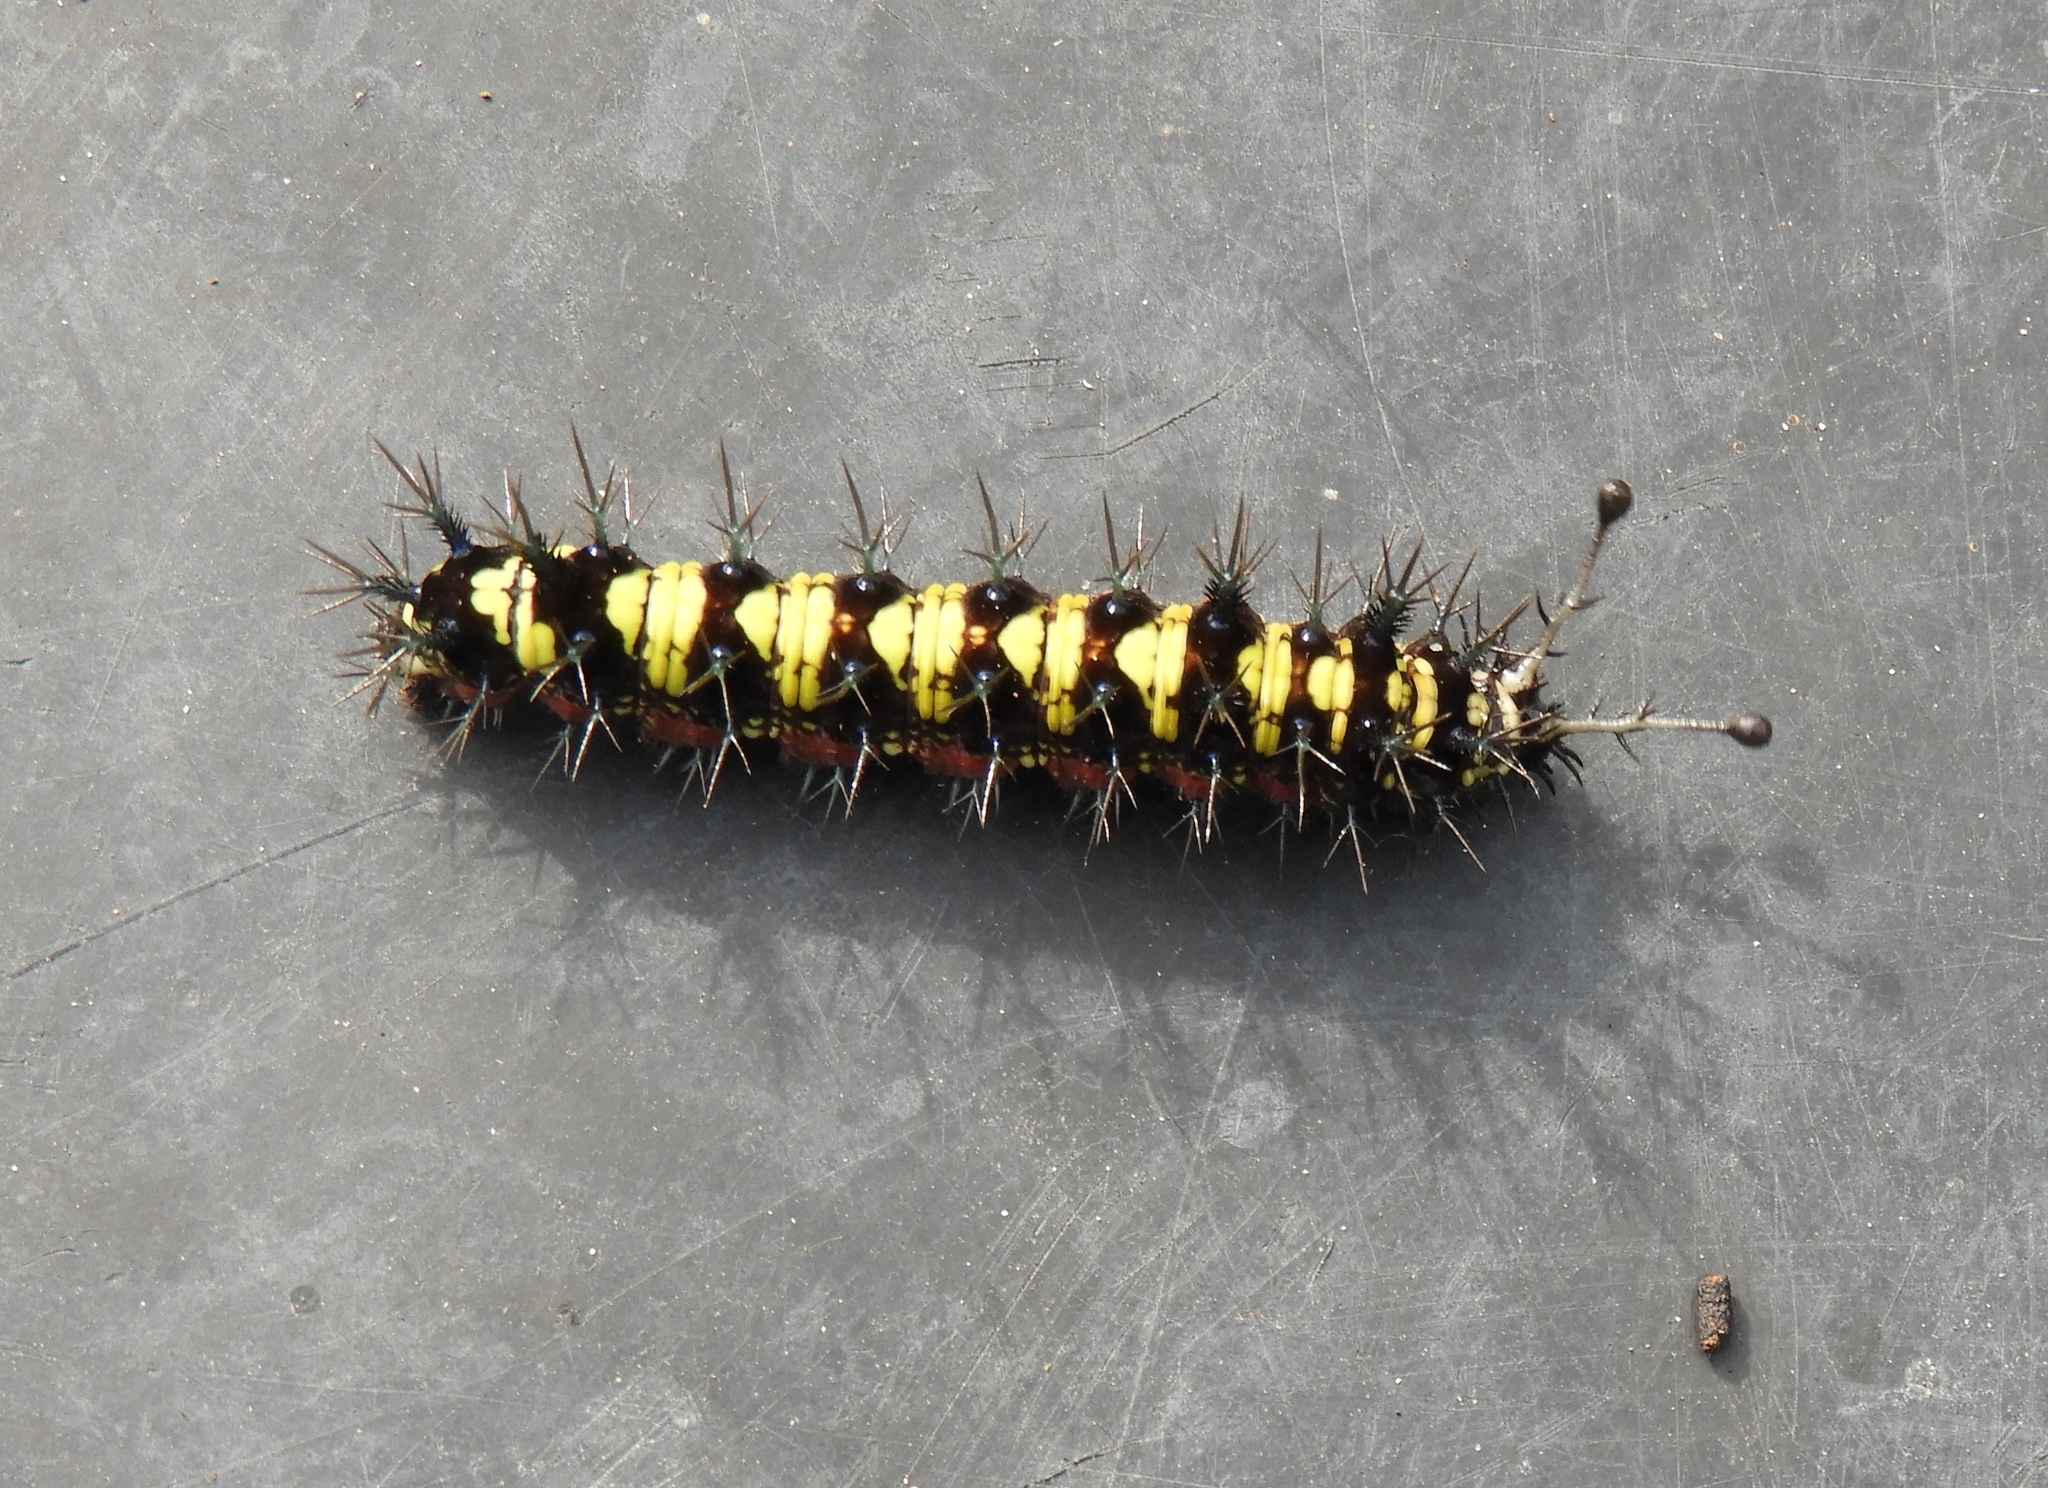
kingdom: Animalia
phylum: Arthropoda
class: Insecta
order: Lepidoptera
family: Nymphalidae
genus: Hamadryas
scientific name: Hamadryas guatemalena
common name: Guatemalan cracker
